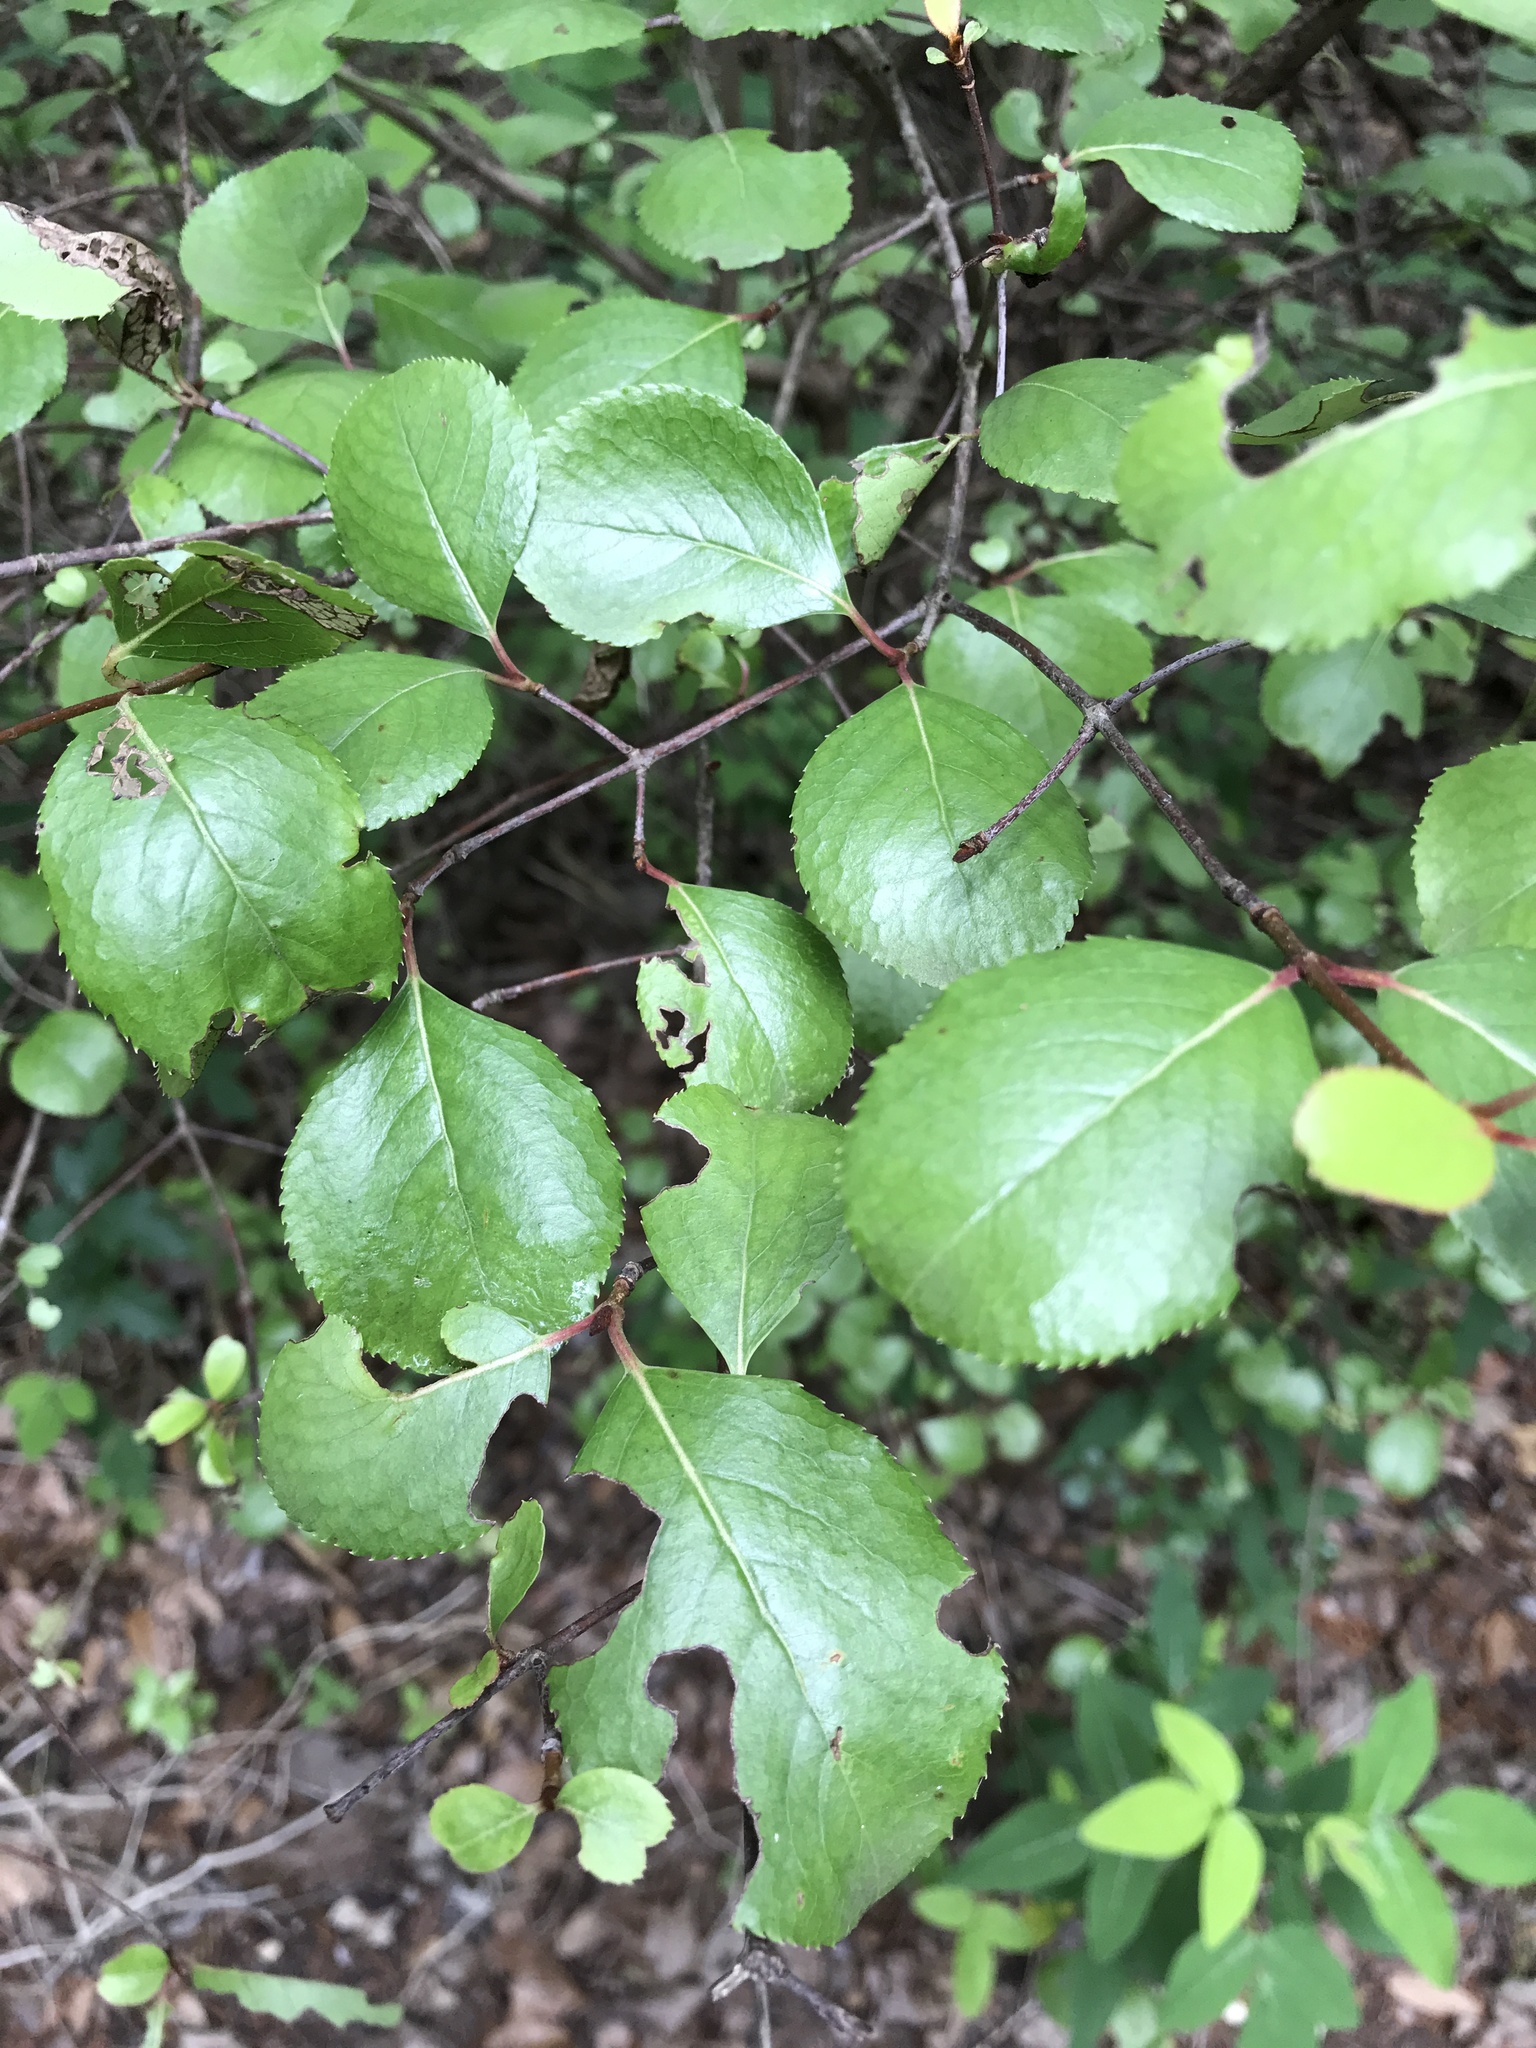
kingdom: Plantae
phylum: Tracheophyta
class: Magnoliopsida
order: Dipsacales
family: Viburnaceae
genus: Viburnum
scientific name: Viburnum rufidulum
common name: Blue haw
